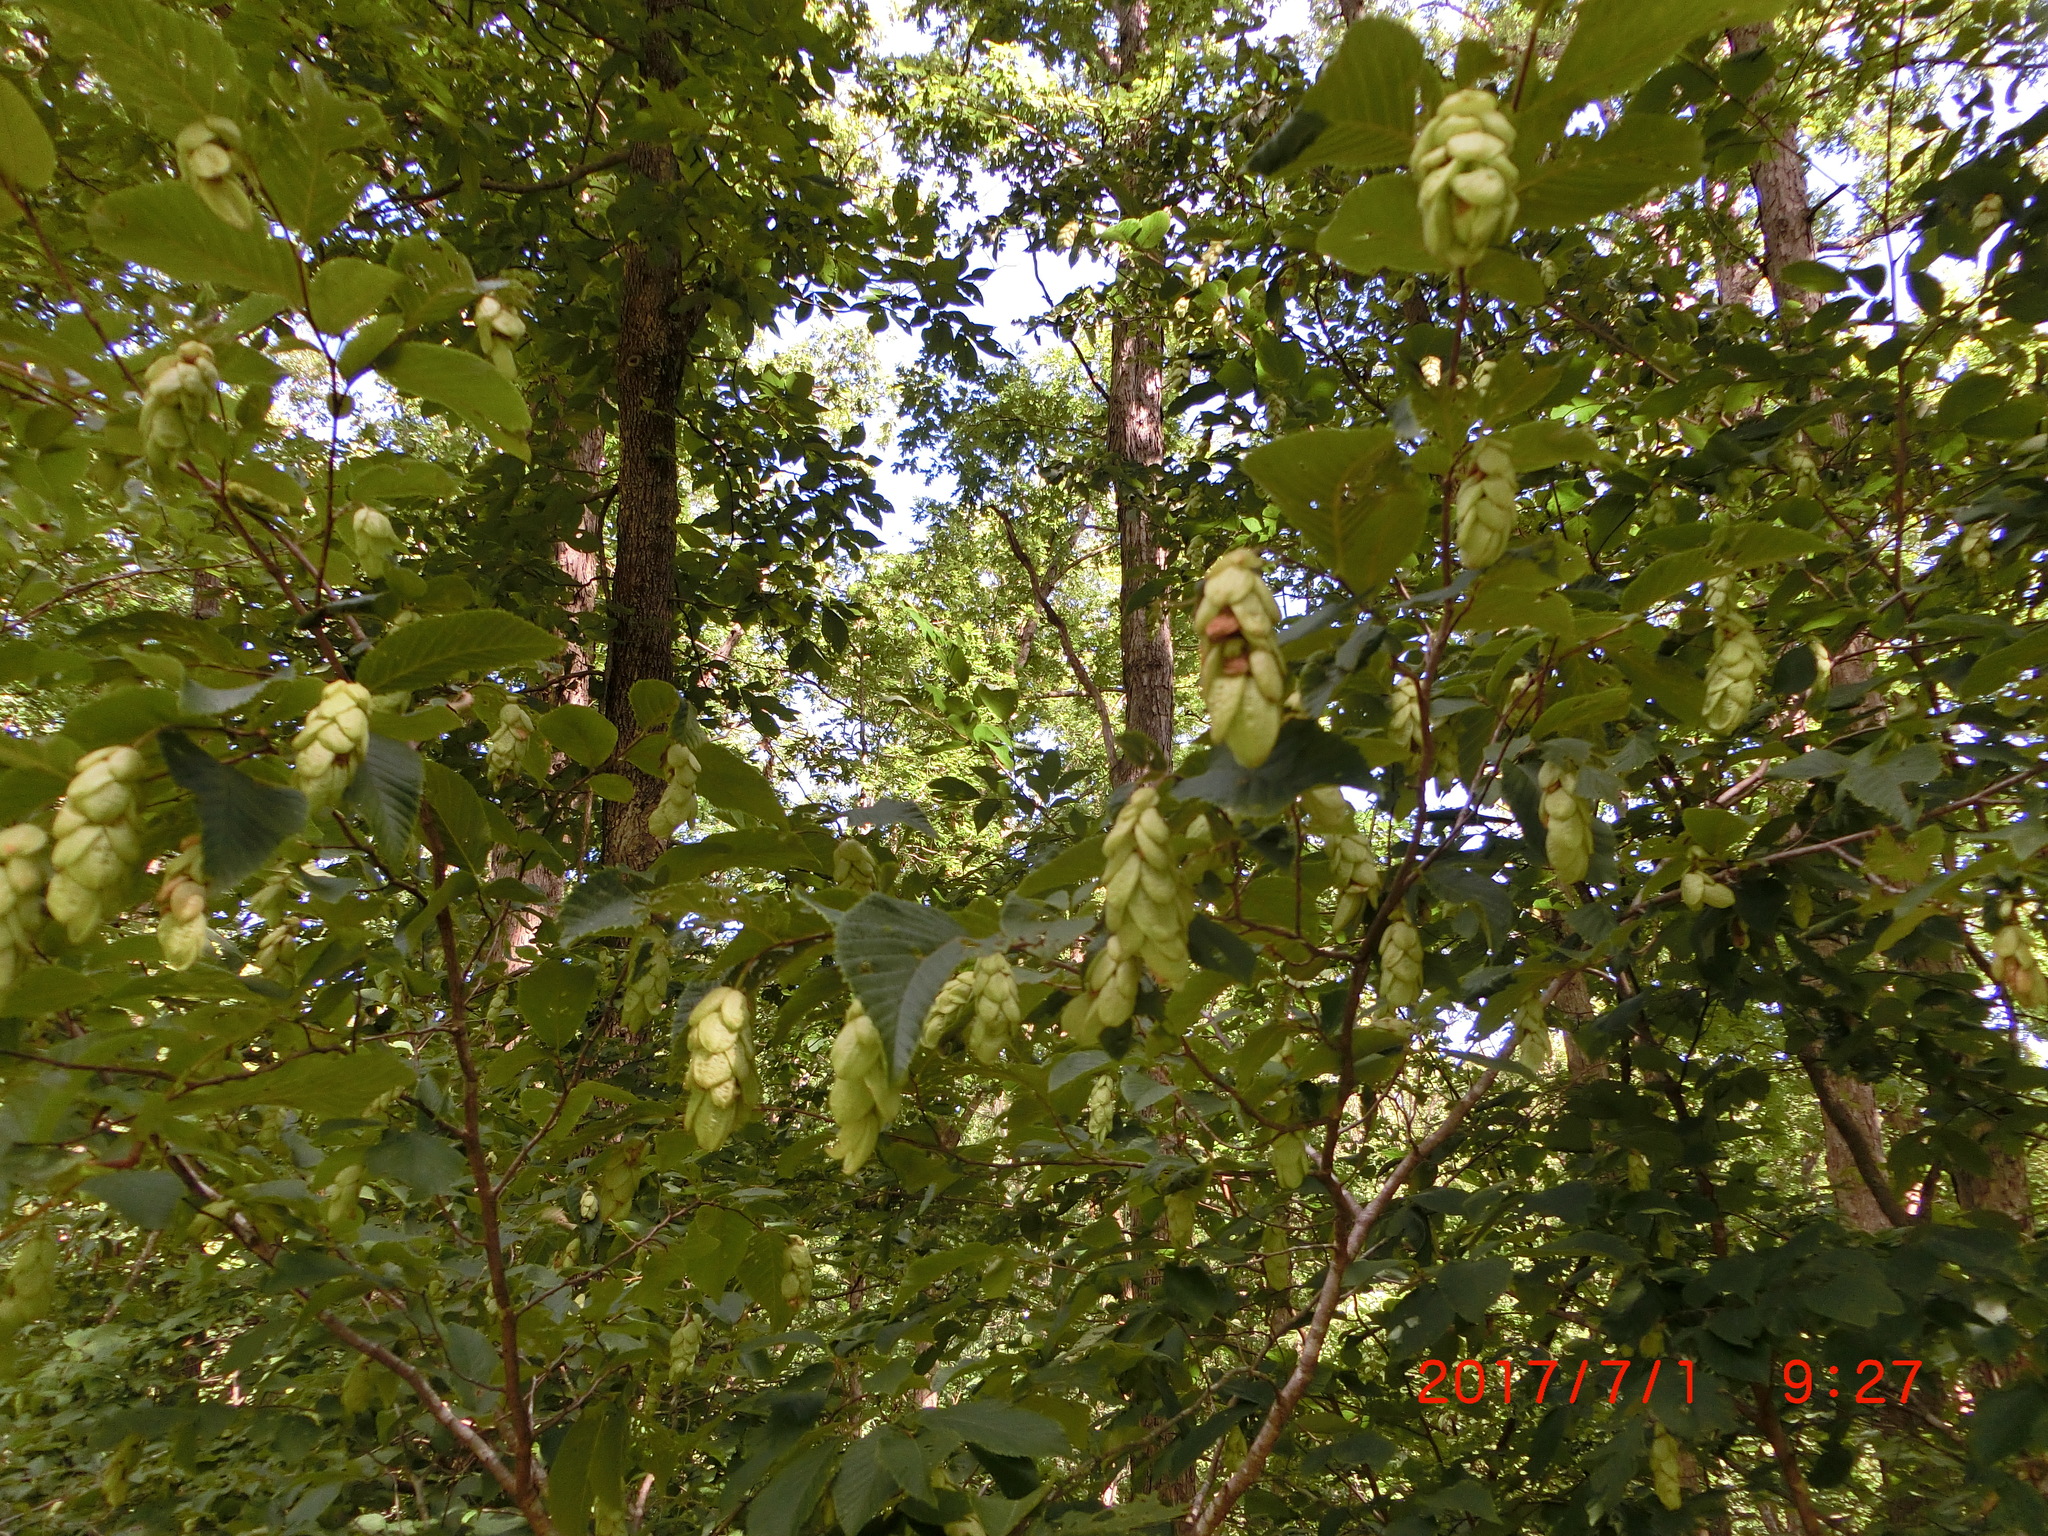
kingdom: Plantae
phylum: Tracheophyta
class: Magnoliopsida
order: Fagales
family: Betulaceae
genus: Ostrya
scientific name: Ostrya virginiana
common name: Ironwood
